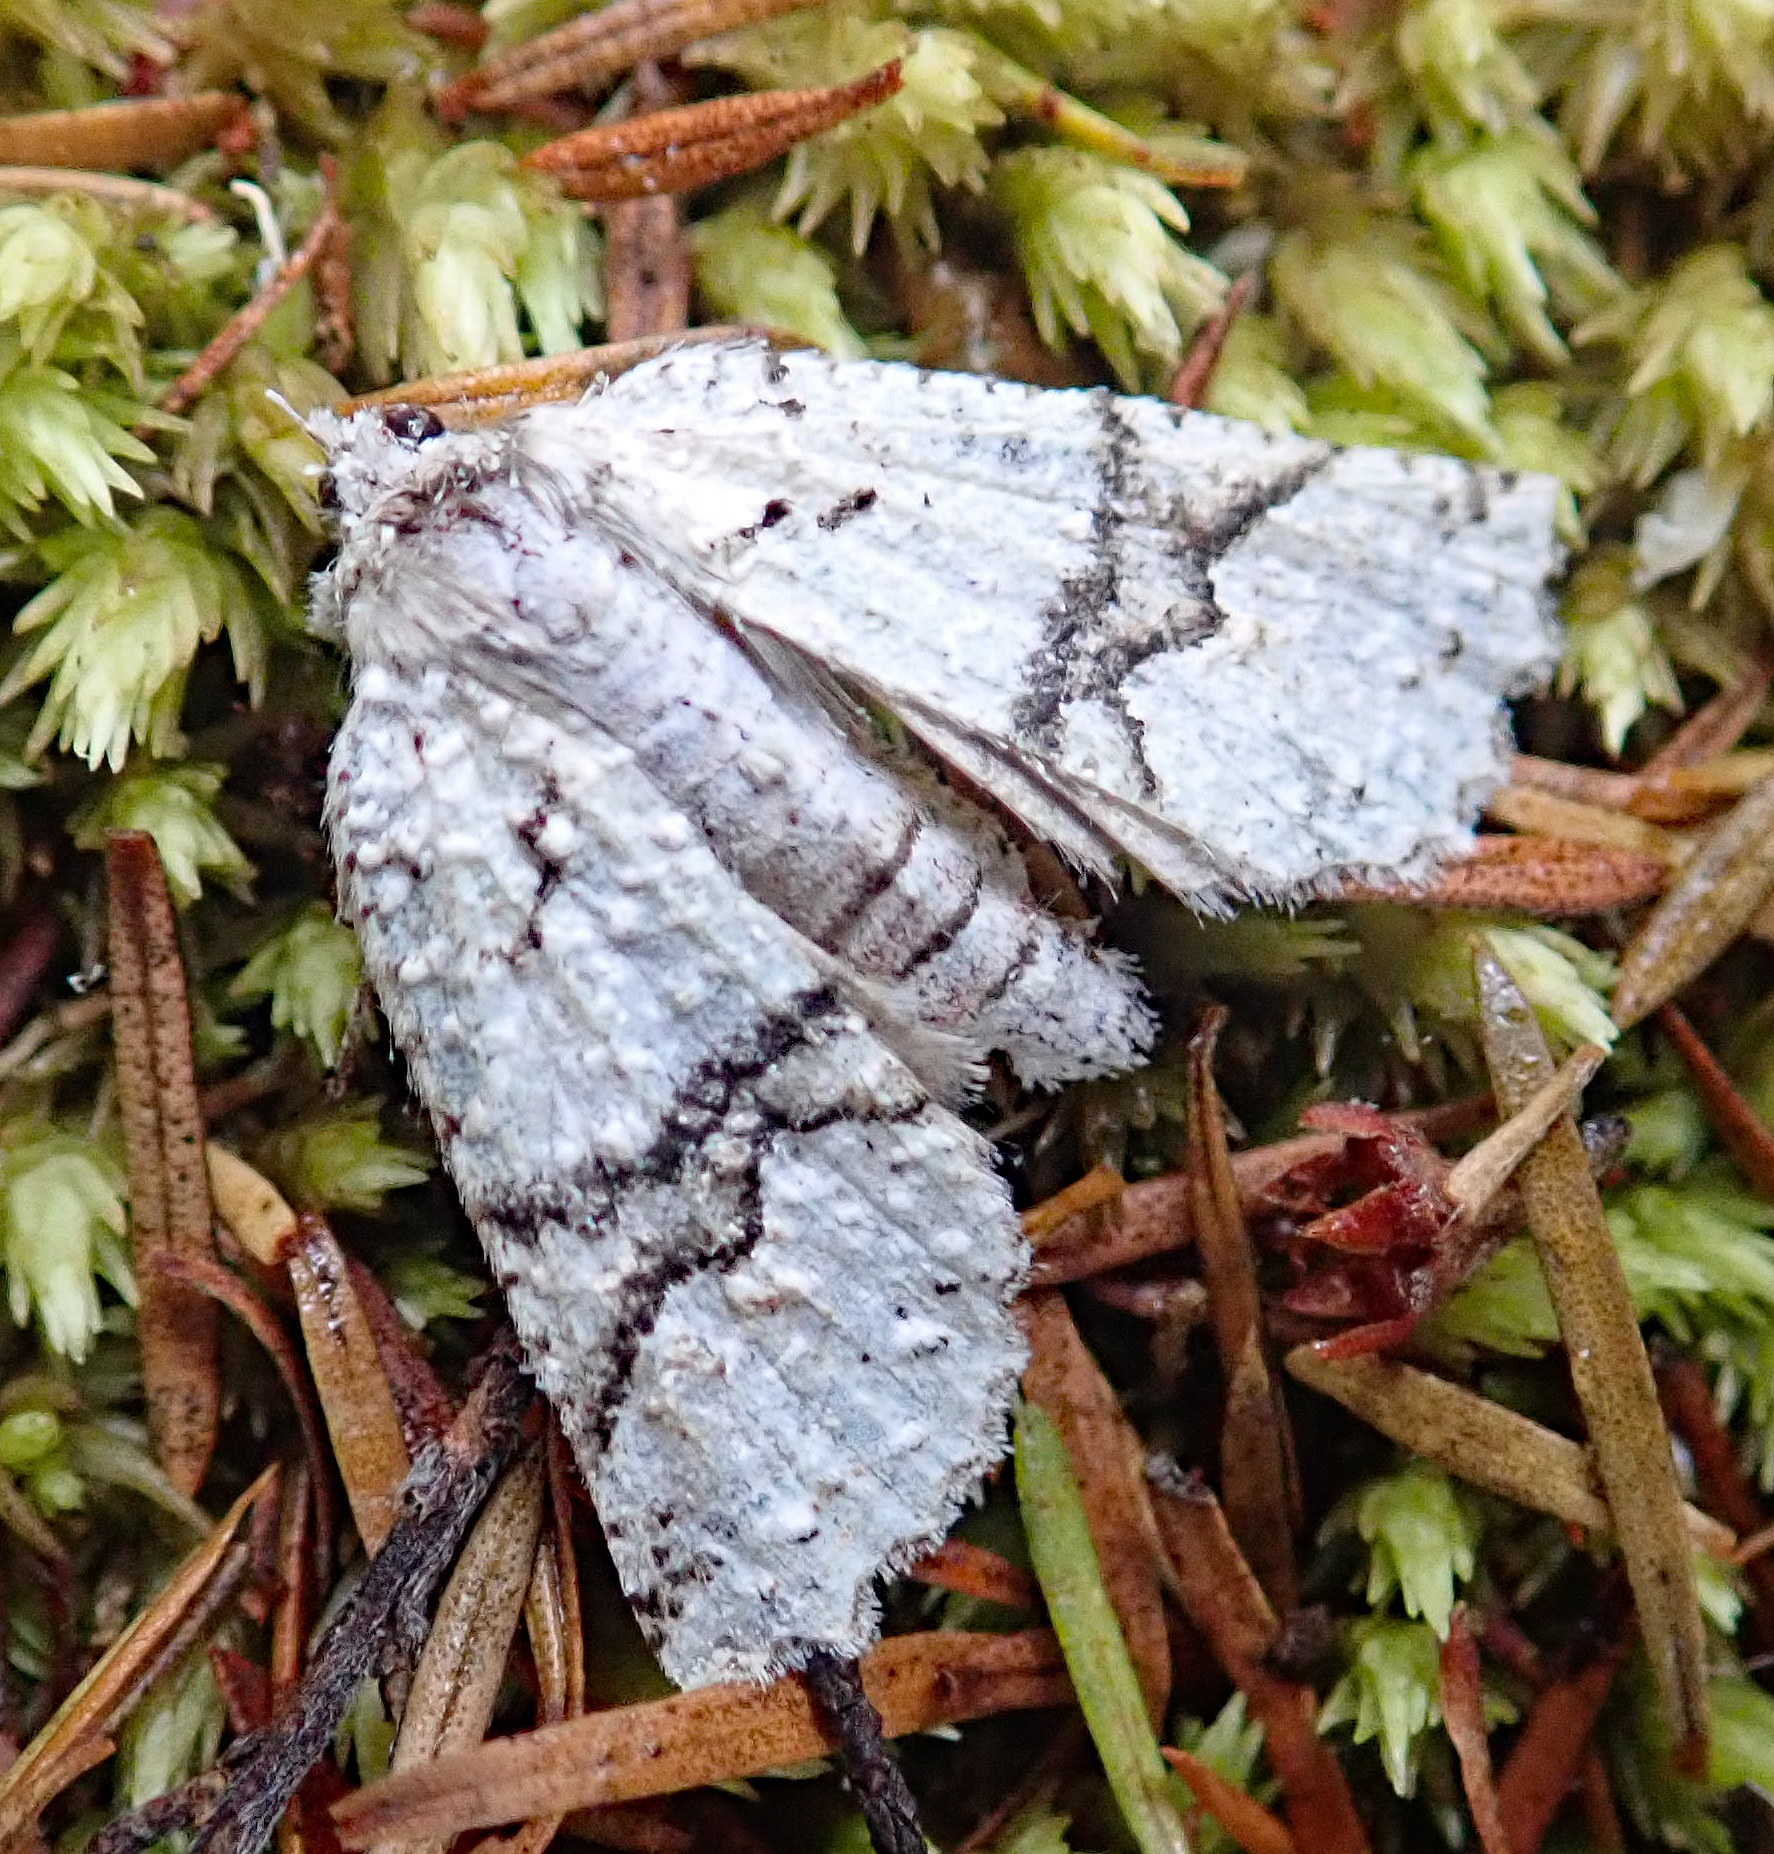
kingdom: Animalia
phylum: Arthropoda
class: Insecta
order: Lepidoptera
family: Geometridae
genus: Declana
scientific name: Declana floccosa
